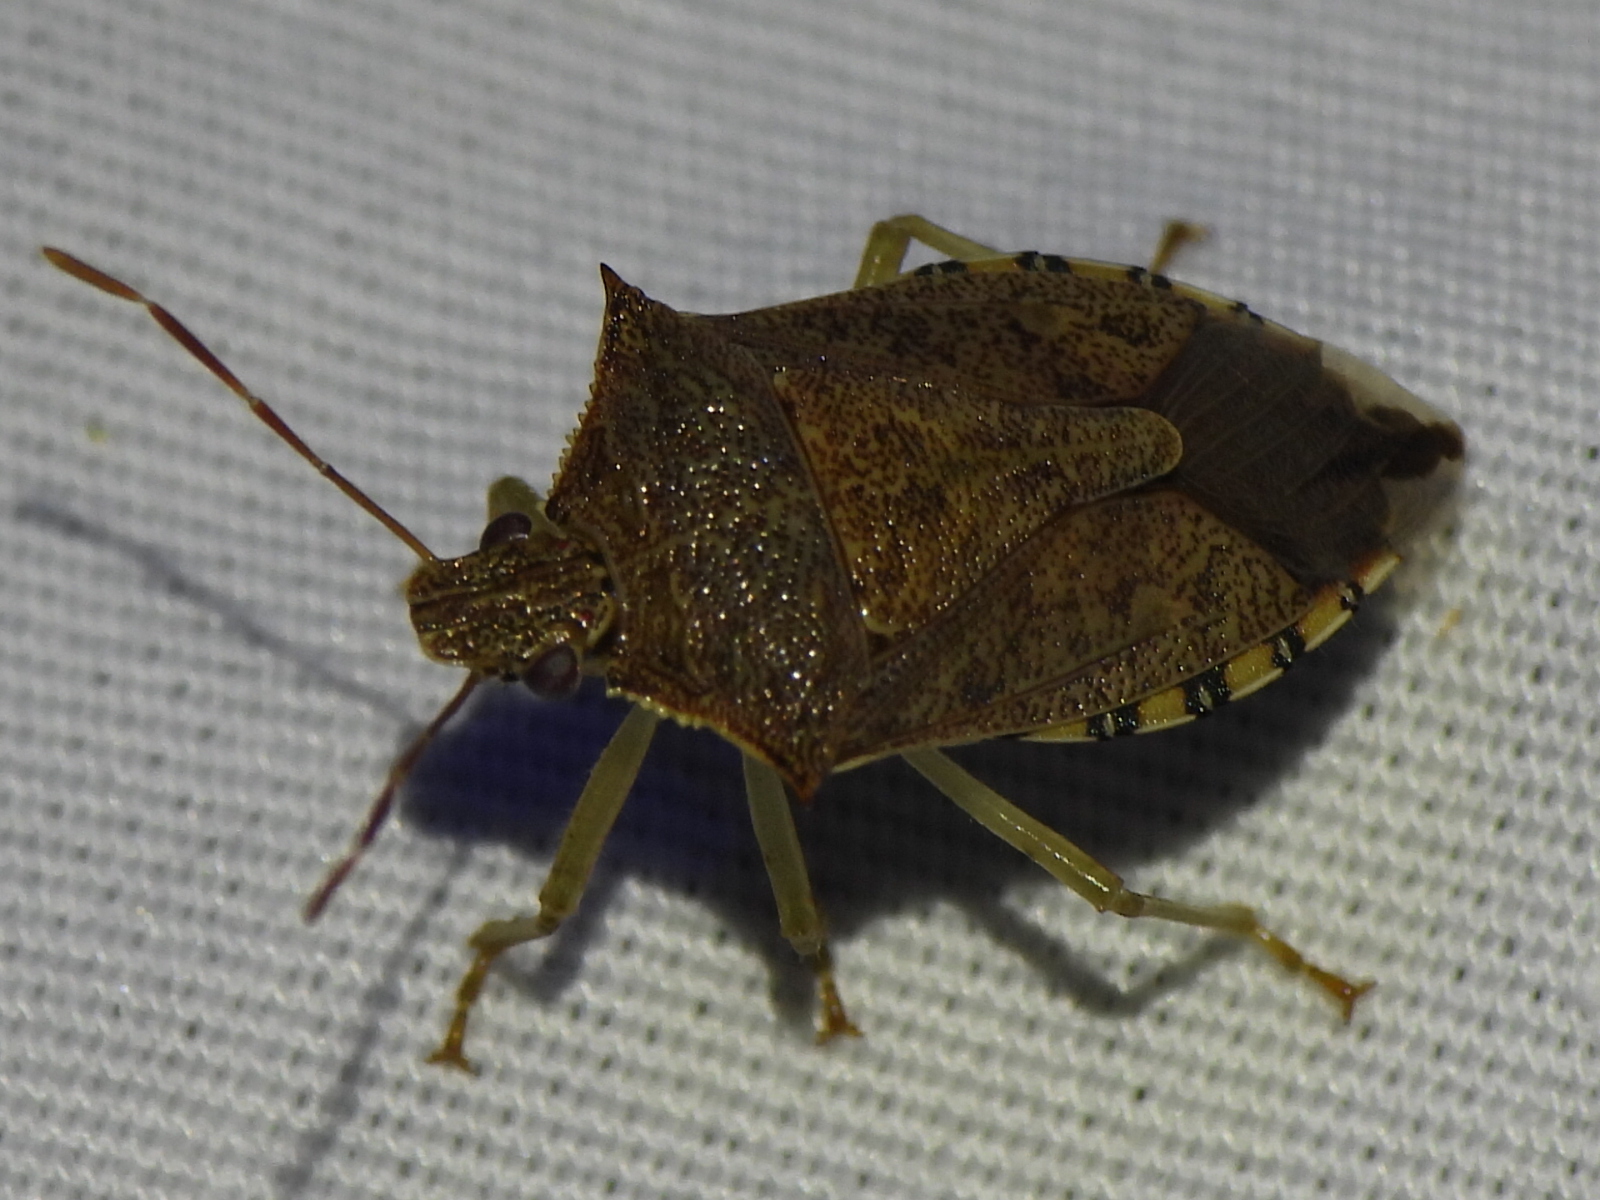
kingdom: Animalia
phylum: Arthropoda
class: Insecta
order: Hemiptera
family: Pentatomidae
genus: Podisus
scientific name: Podisus maculiventris
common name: Spined soldier bug
